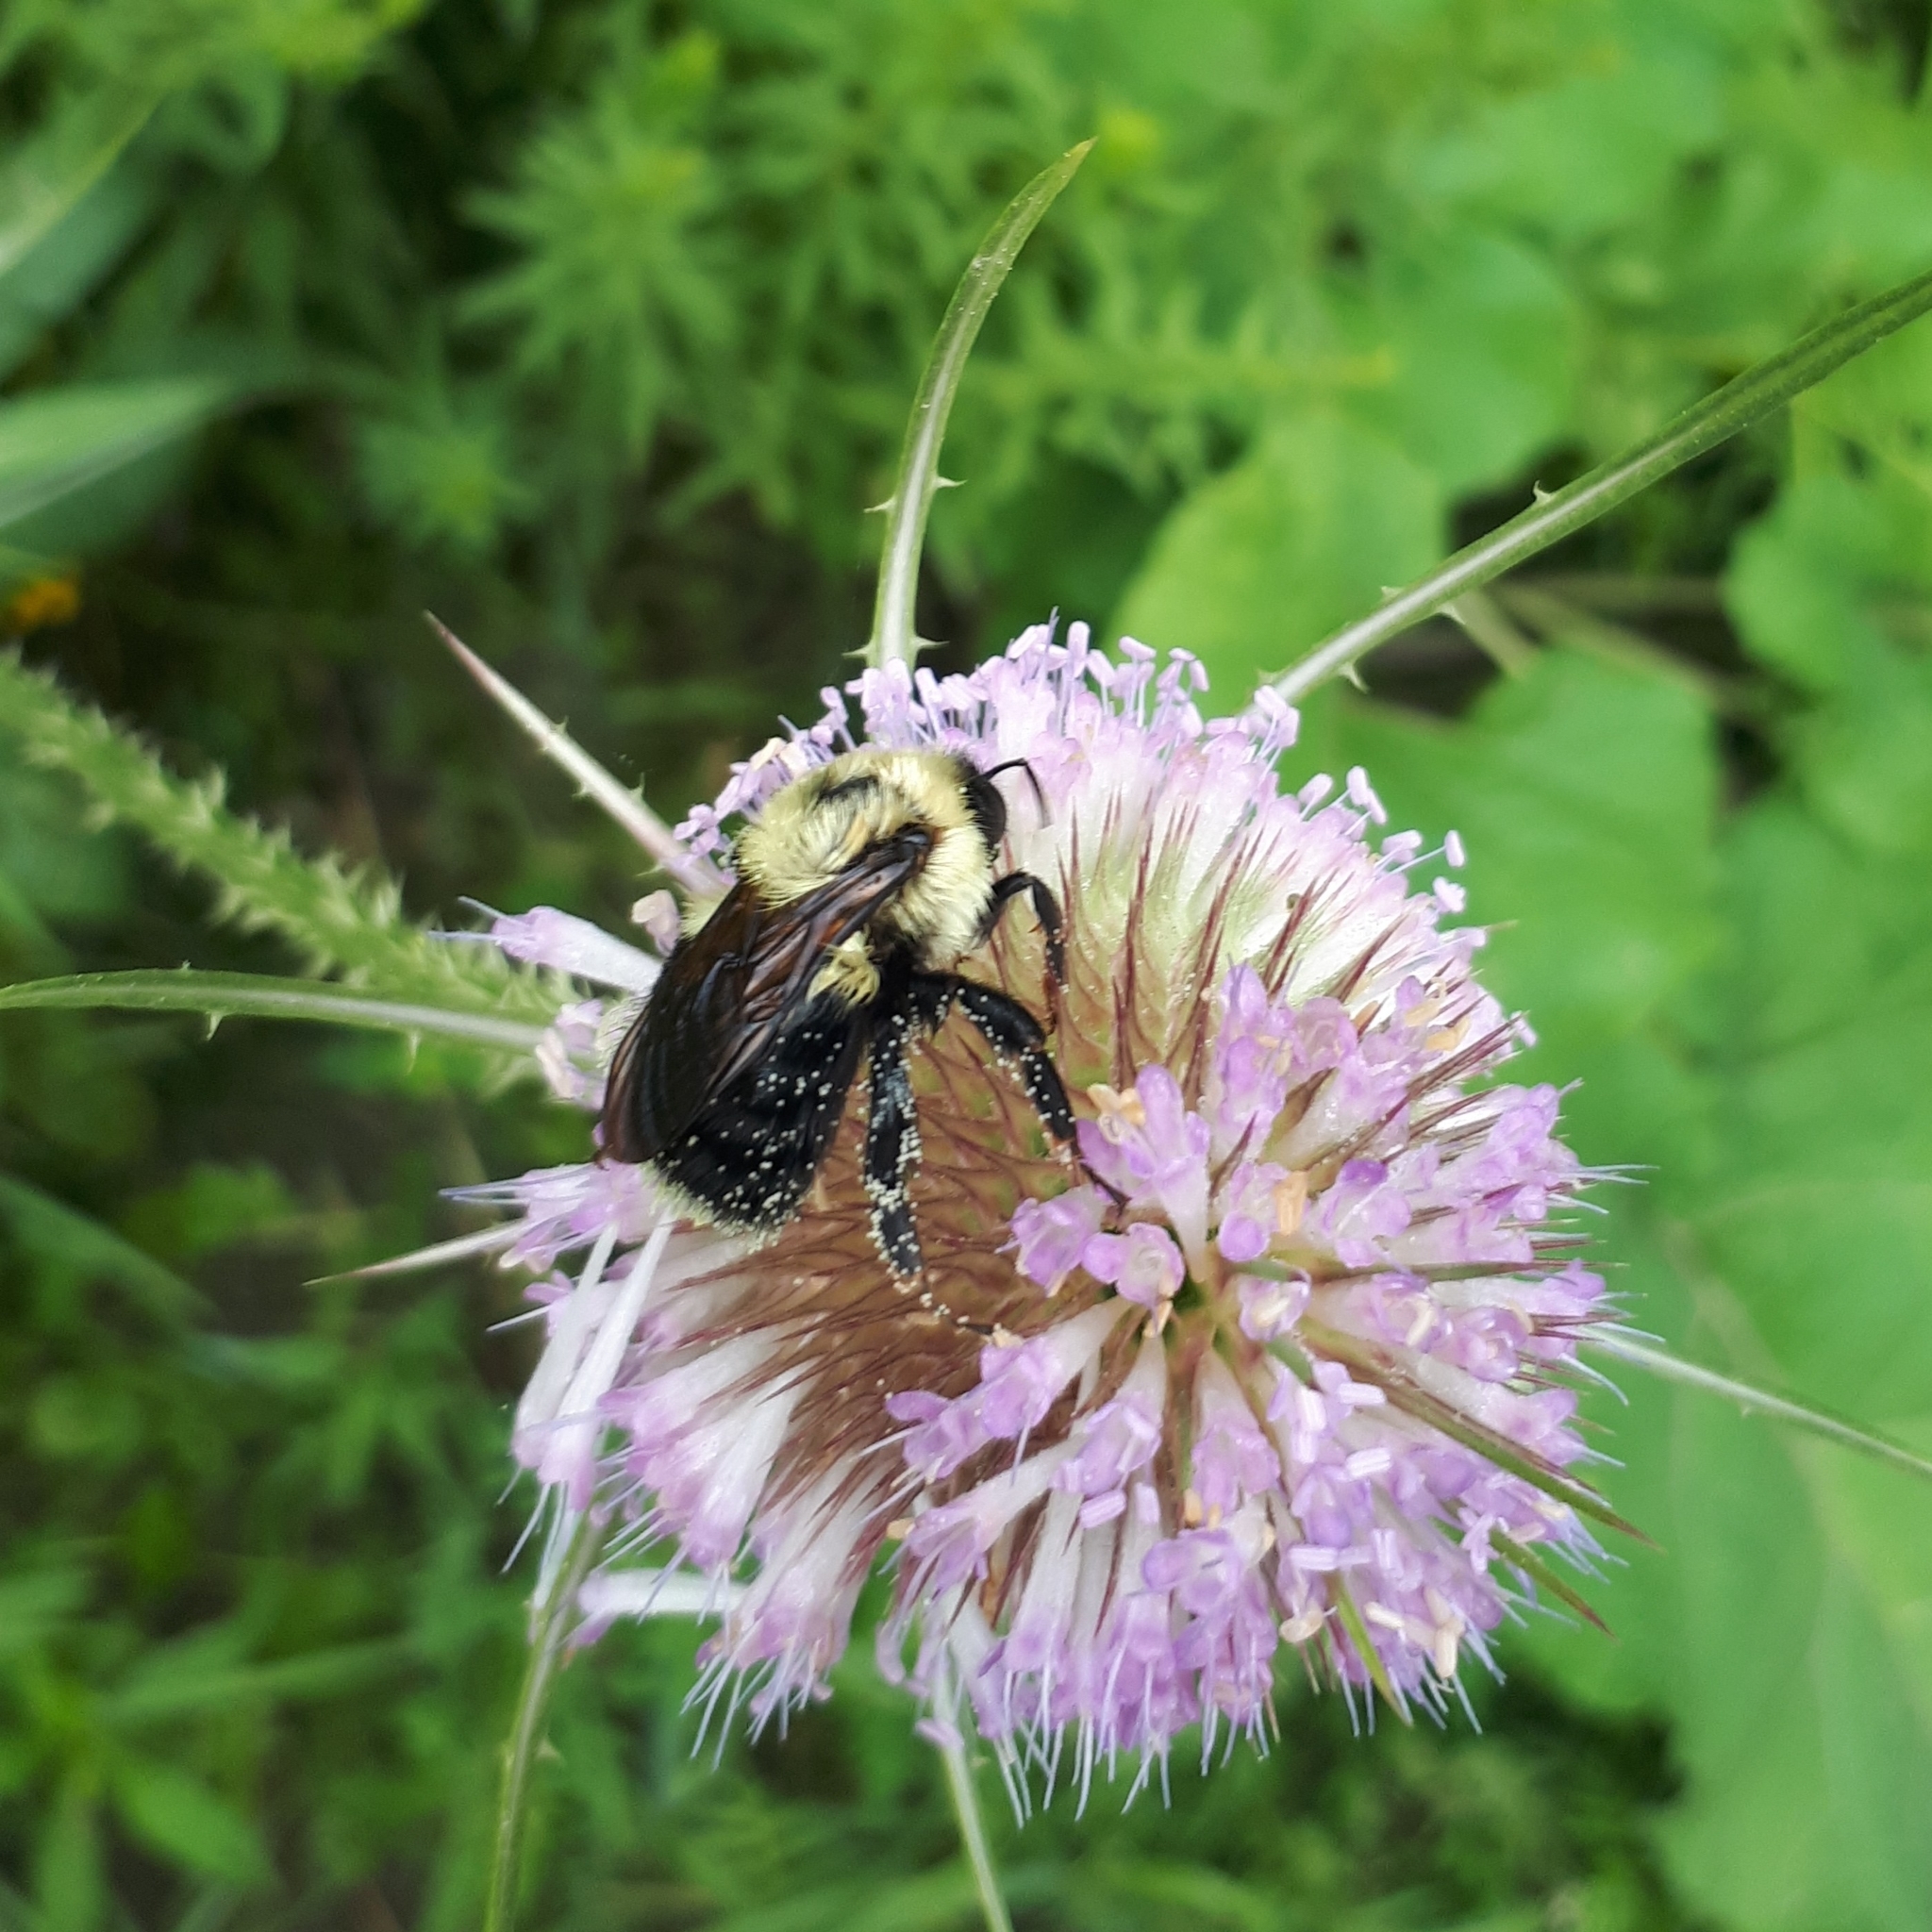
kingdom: Animalia
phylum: Arthropoda
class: Insecta
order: Hymenoptera
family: Apidae
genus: Bombus
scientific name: Bombus bimaculatus
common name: Two-spotted bumble bee
